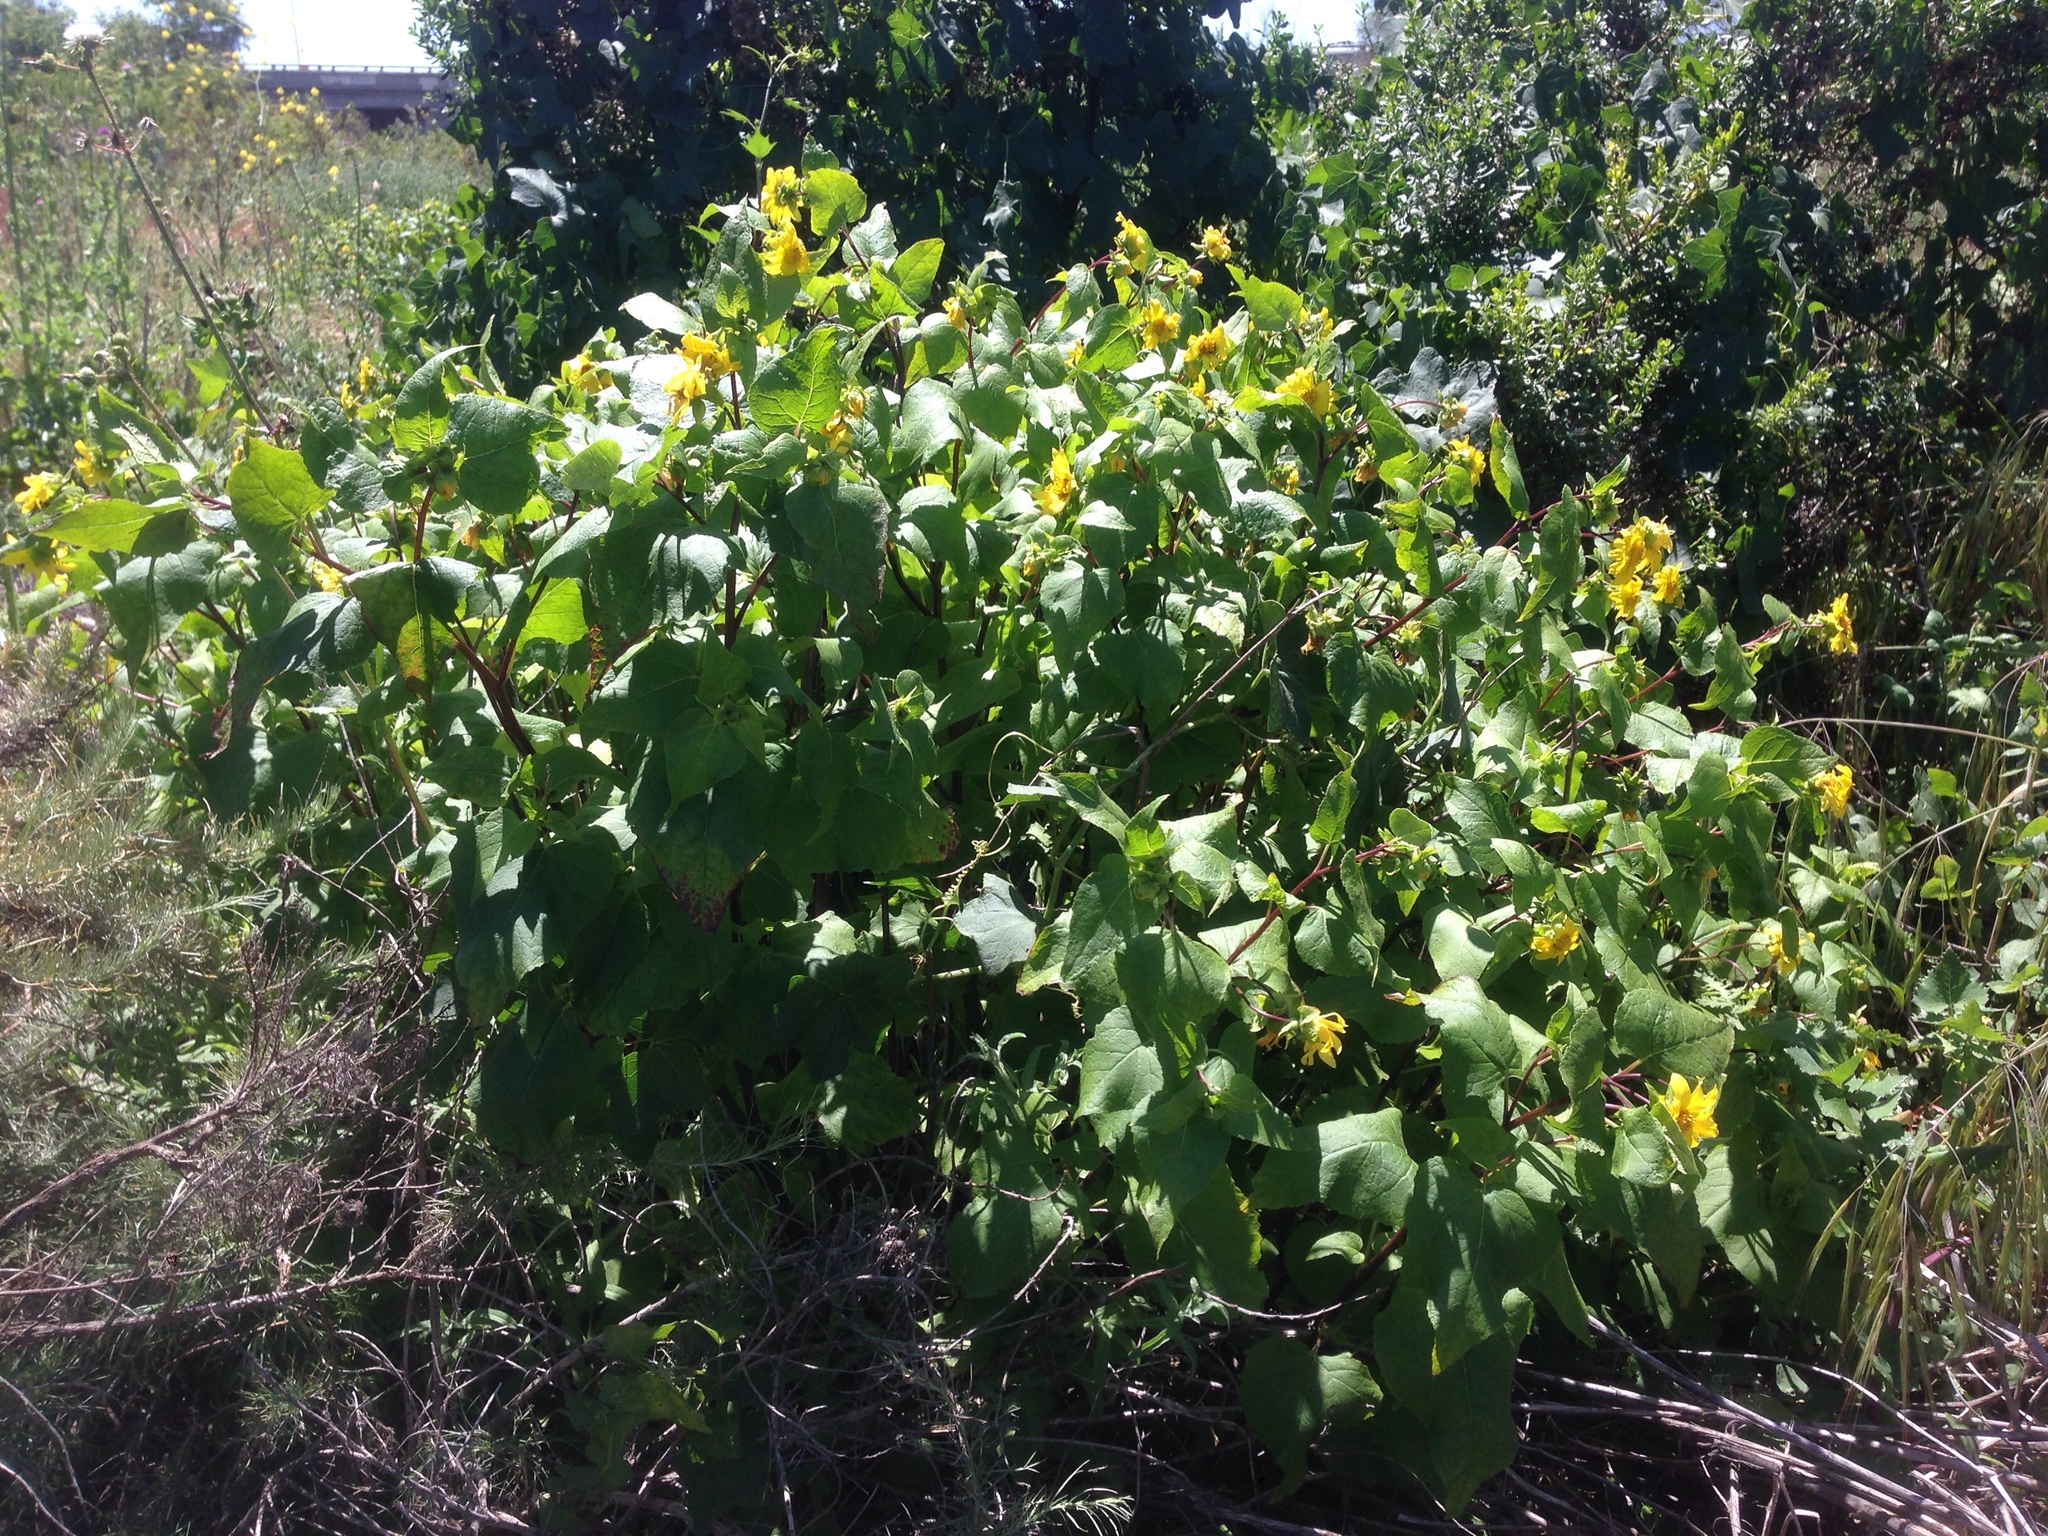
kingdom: Plantae
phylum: Tracheophyta
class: Magnoliopsida
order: Asterales
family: Asteraceae
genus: Venegasia
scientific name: Venegasia carpesioides
